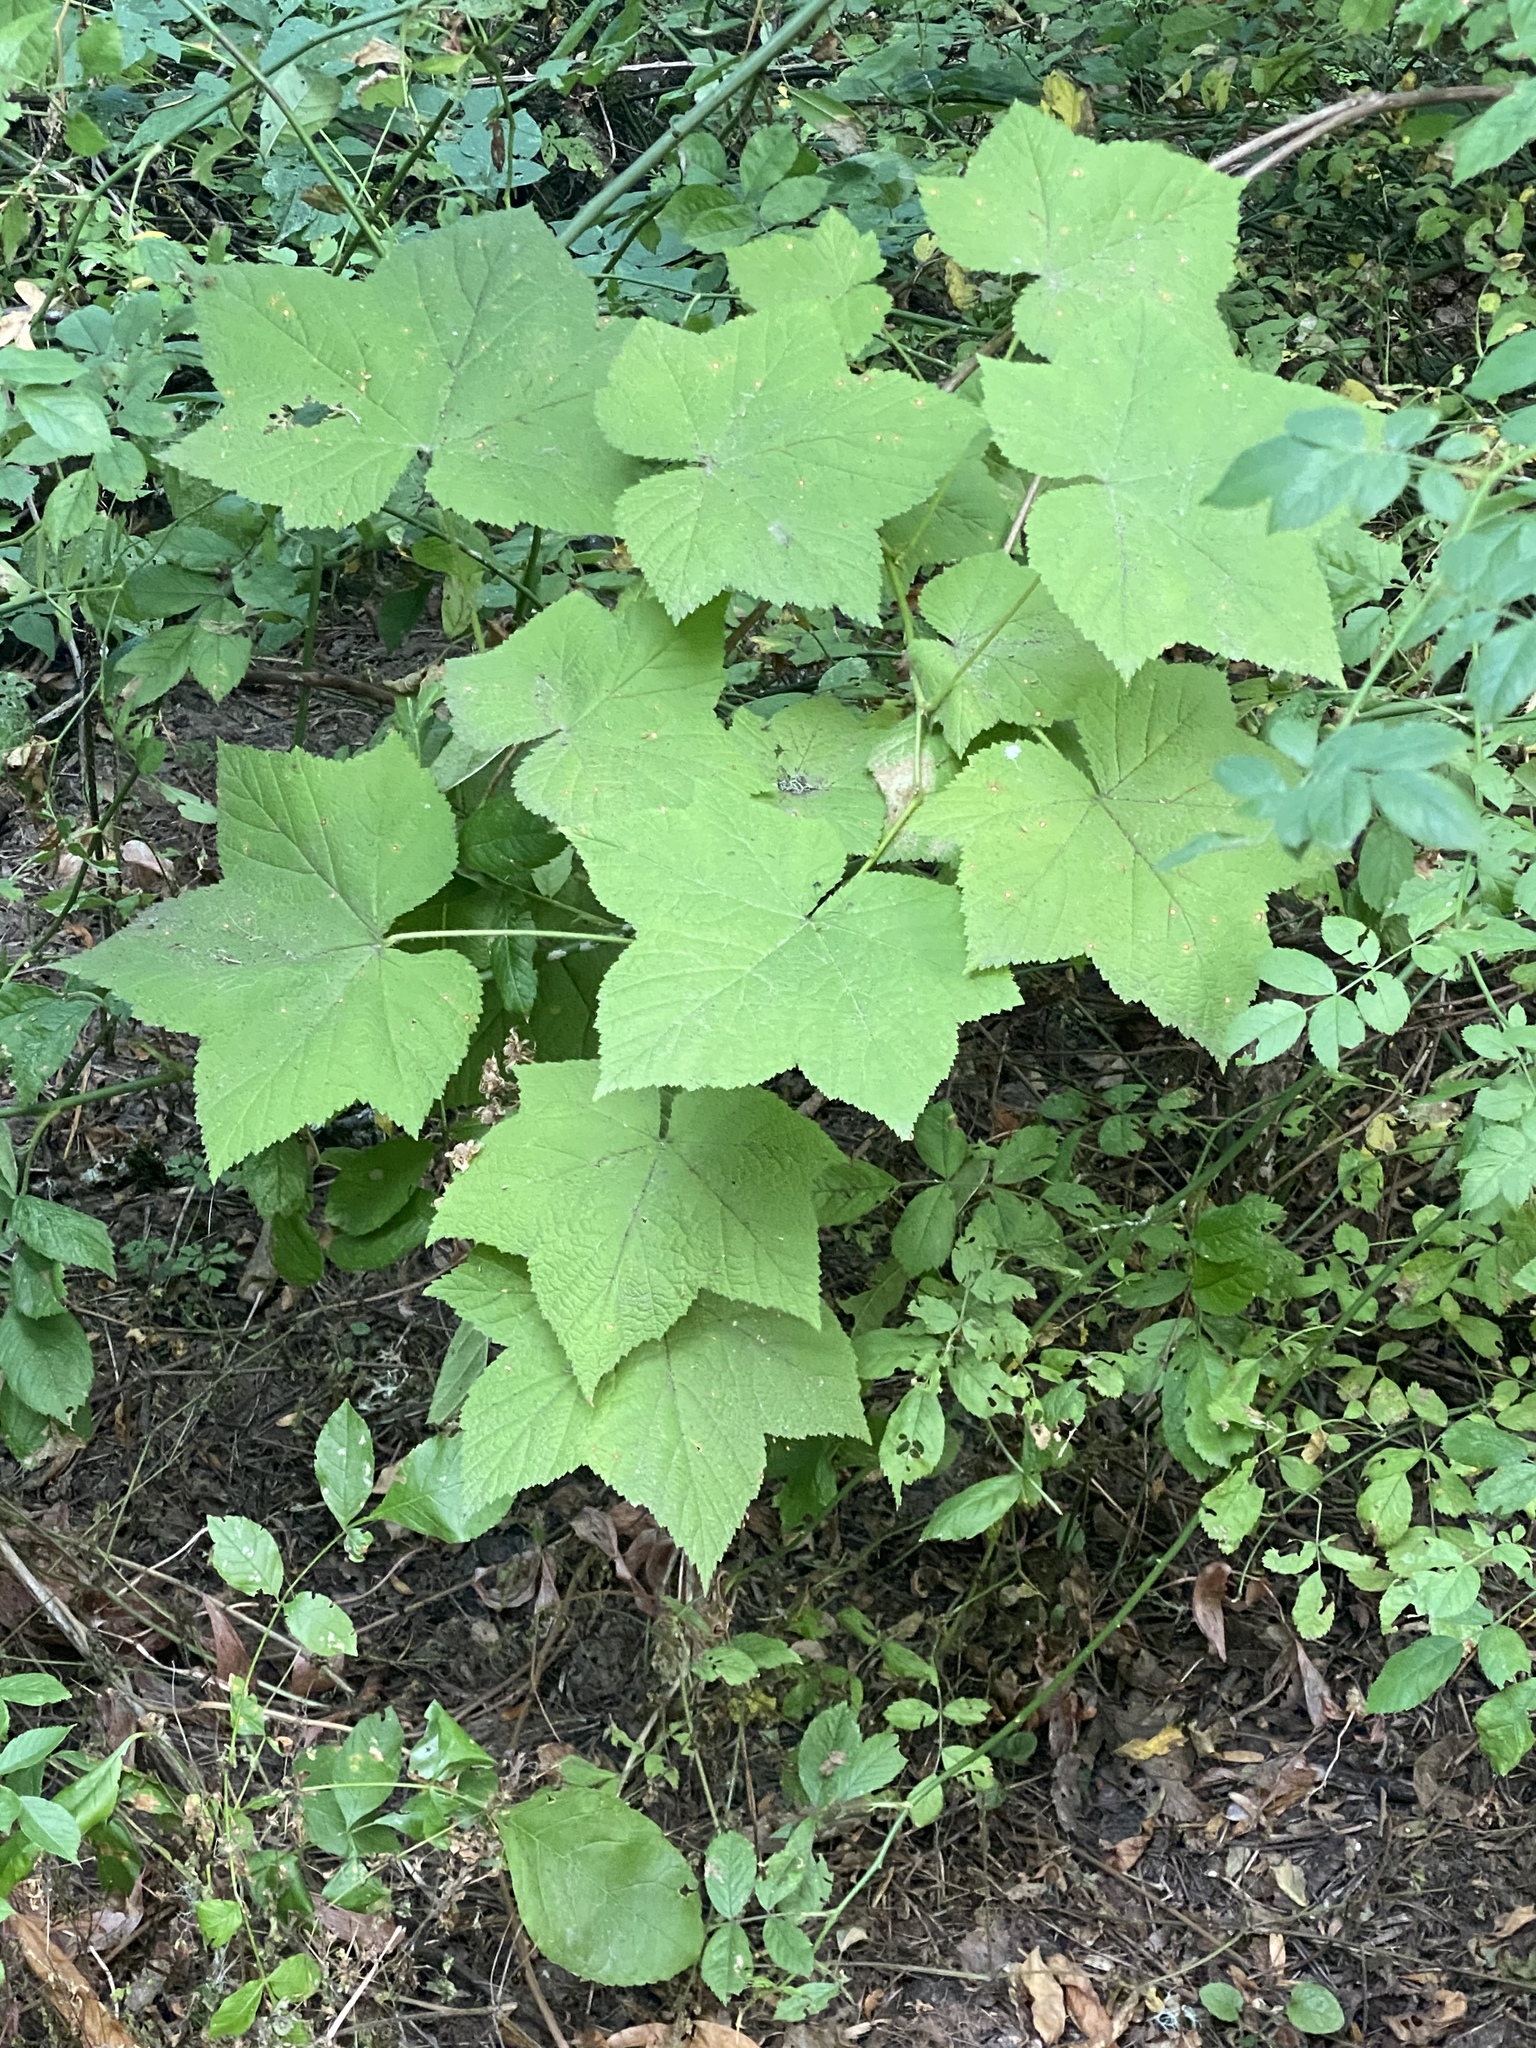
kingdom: Plantae
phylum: Tracheophyta
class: Magnoliopsida
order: Rosales
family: Rosaceae
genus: Rubus
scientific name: Rubus parviflorus
